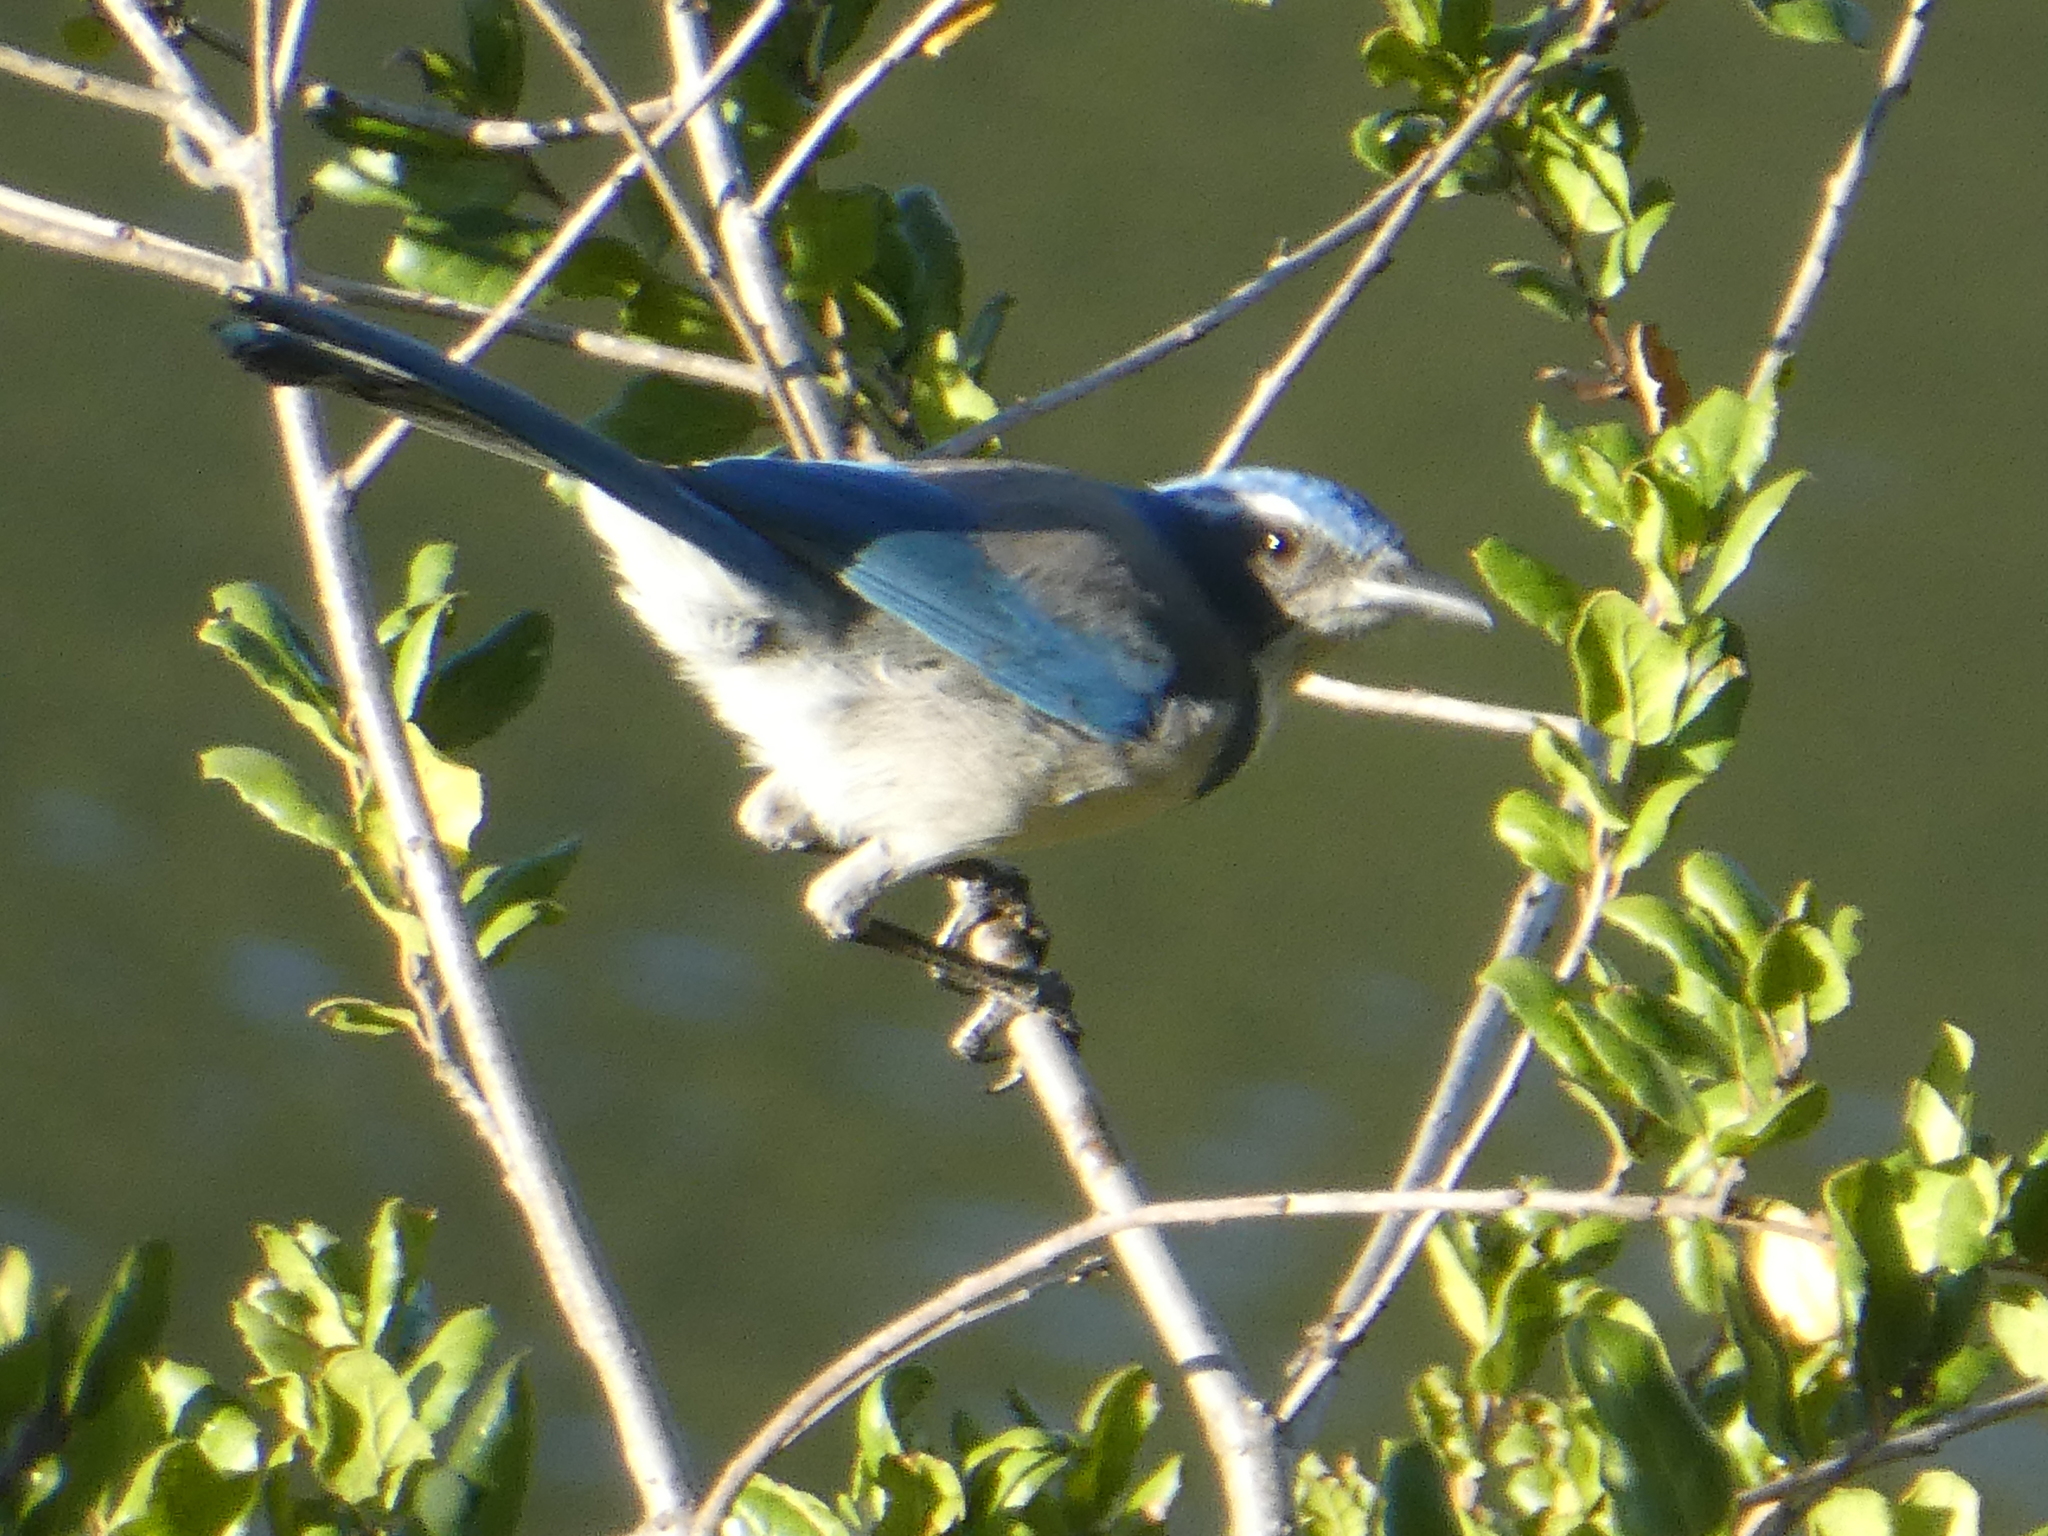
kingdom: Animalia
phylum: Chordata
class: Aves
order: Passeriformes
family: Corvidae
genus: Aphelocoma
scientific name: Aphelocoma californica
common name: California scrub-jay
